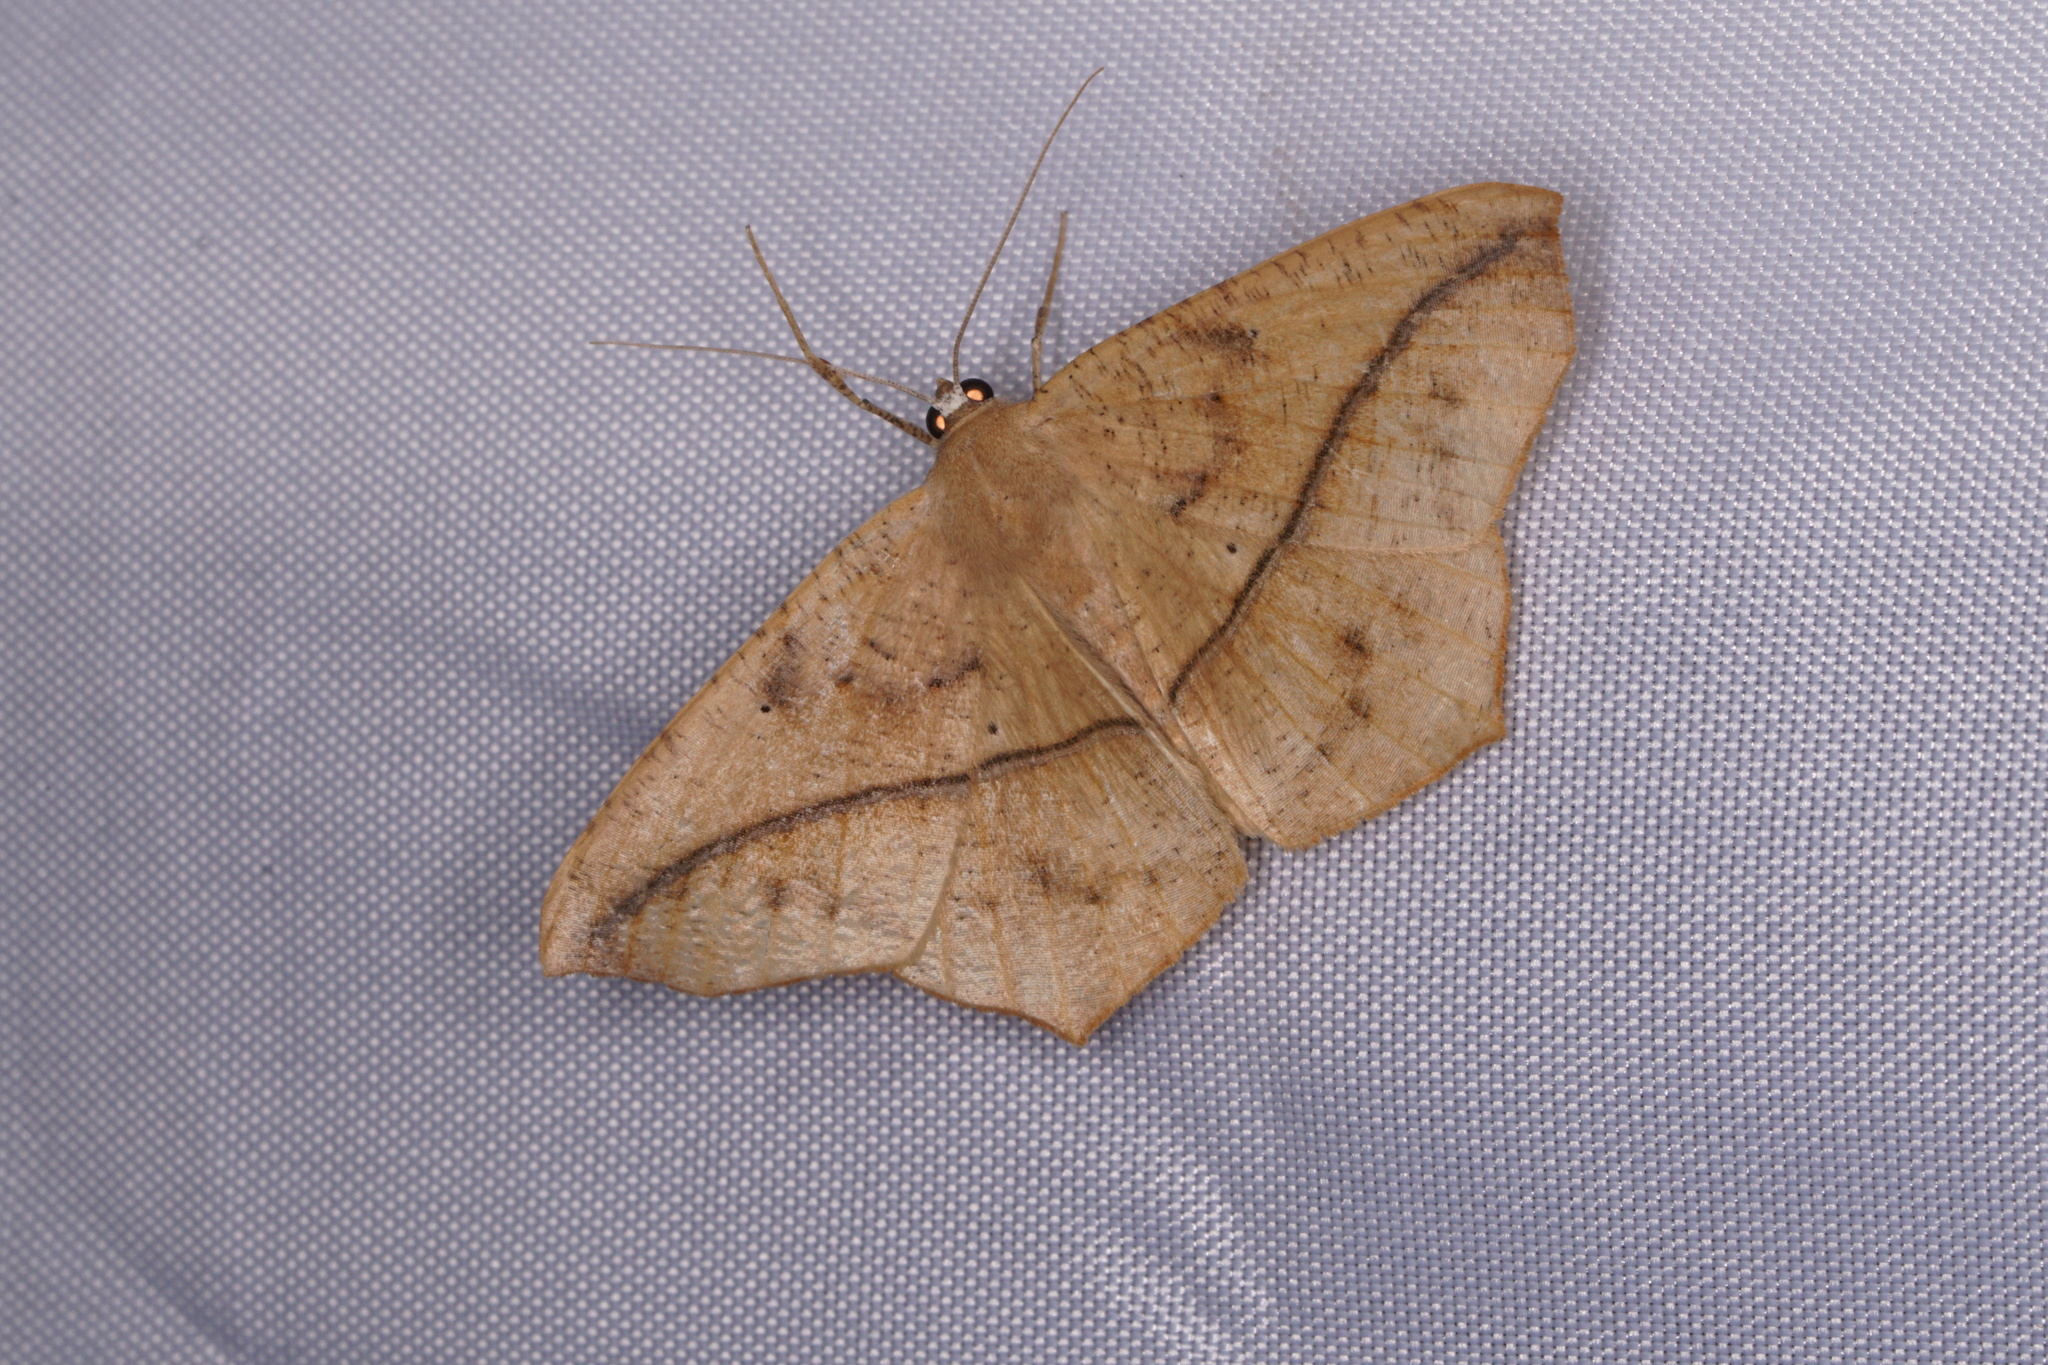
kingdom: Animalia
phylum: Arthropoda
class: Insecta
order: Lepidoptera
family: Geometridae
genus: Prochoerodes
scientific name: Prochoerodes lineola
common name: Large maple spanworm
